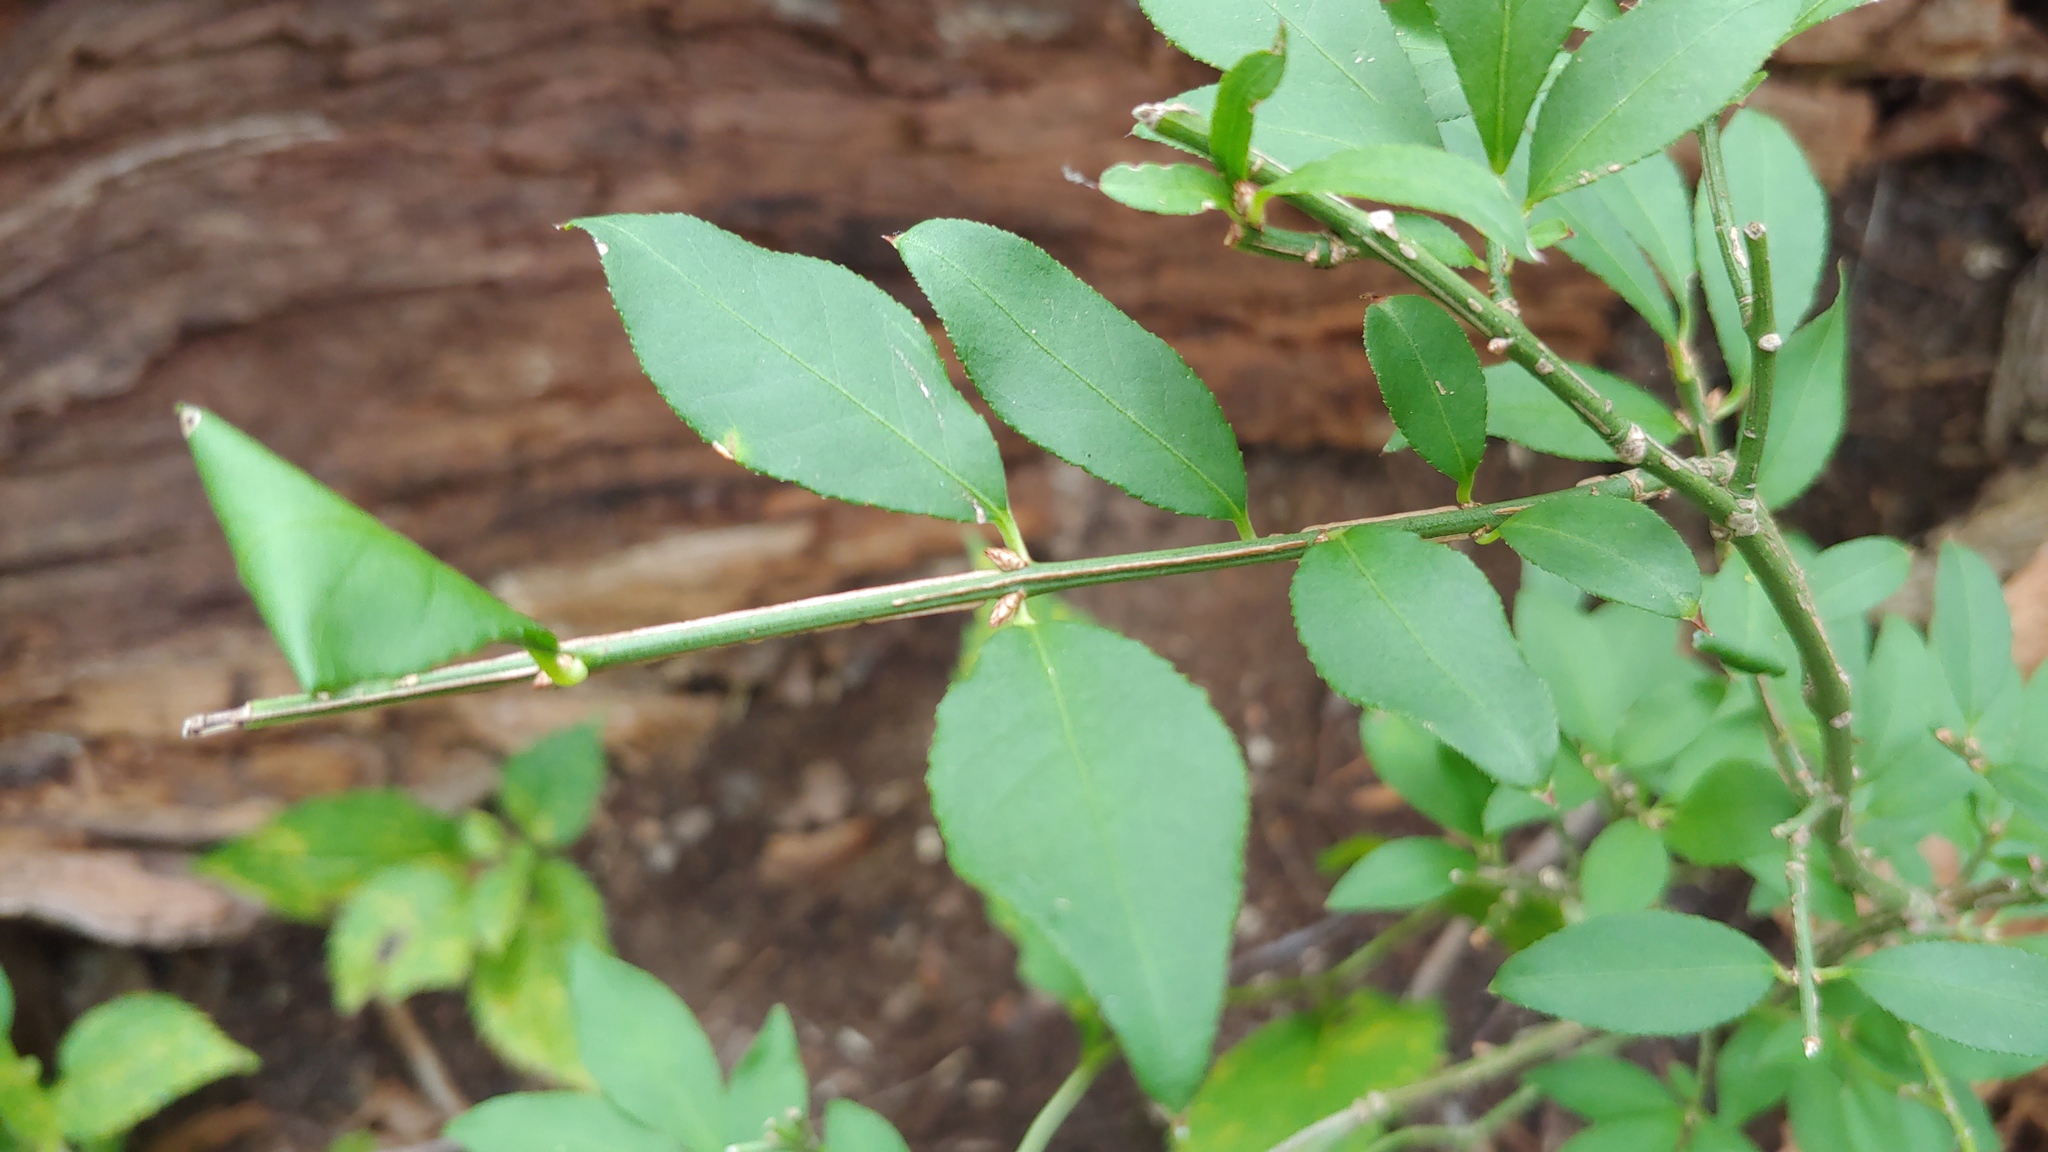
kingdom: Plantae
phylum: Tracheophyta
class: Magnoliopsida
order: Celastrales
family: Celastraceae
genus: Euonymus
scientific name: Euonymus alatus
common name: Winged euonymus
